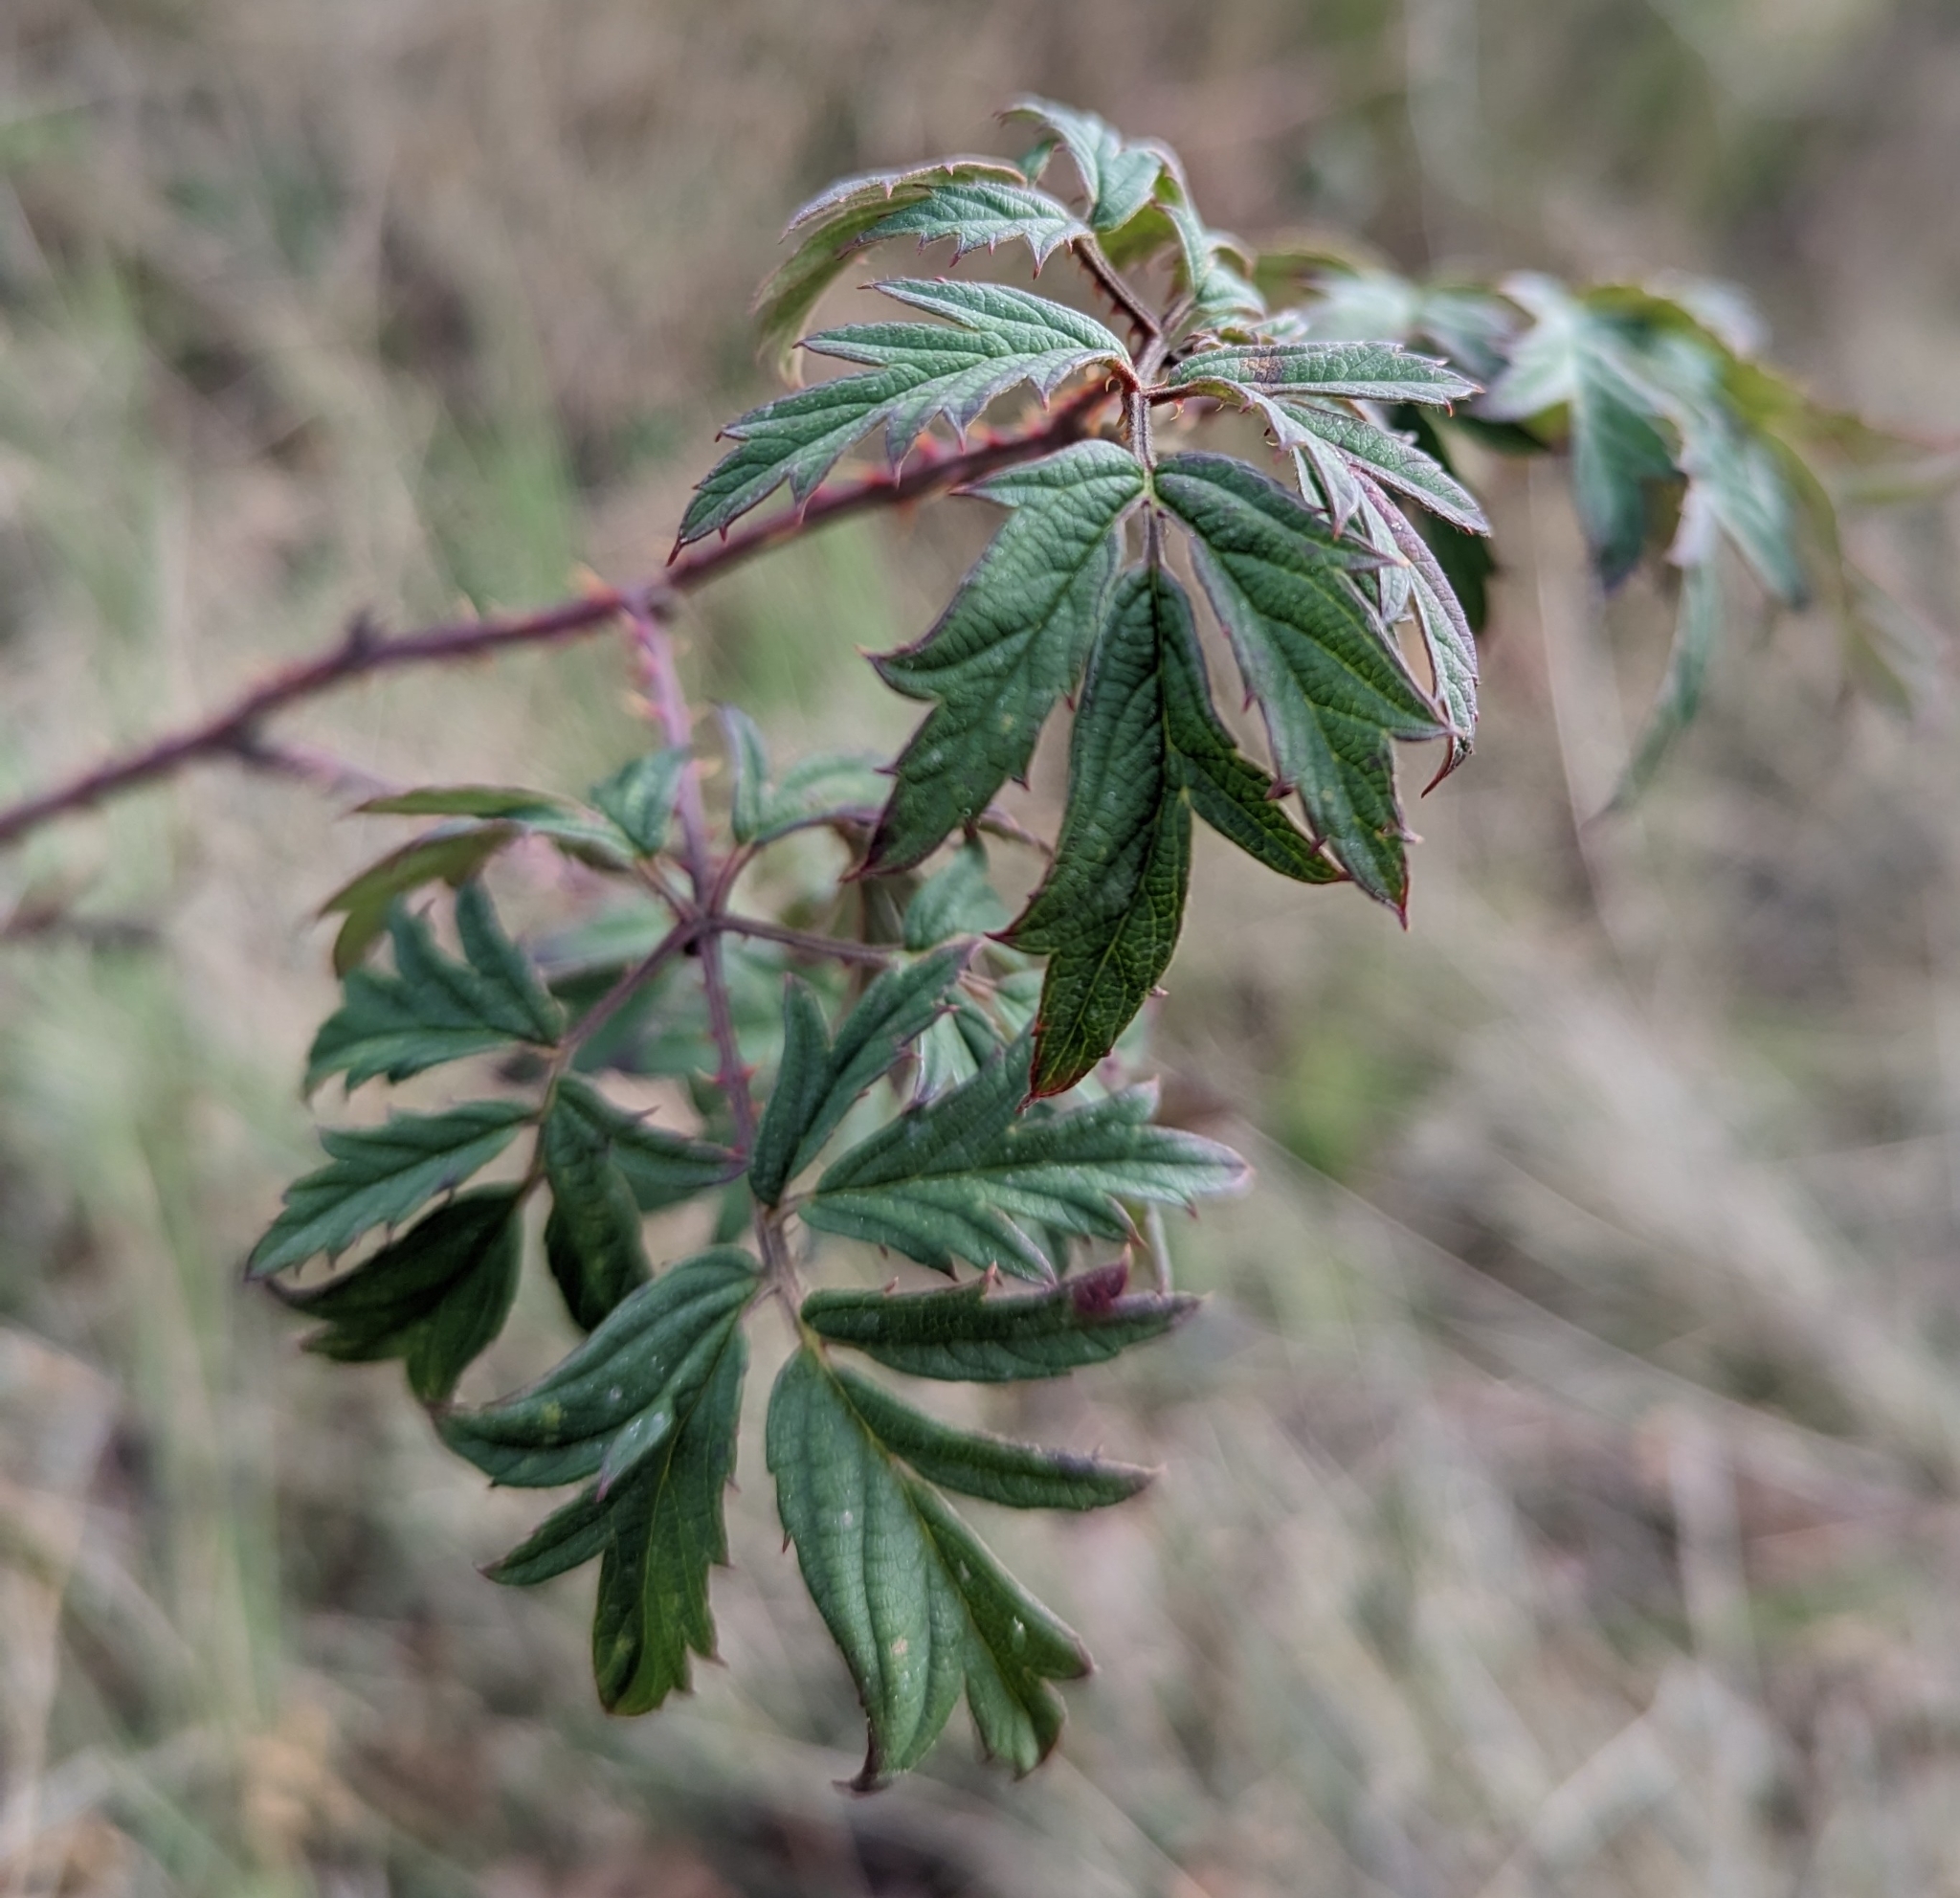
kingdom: Plantae
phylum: Tracheophyta
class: Magnoliopsida
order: Rosales
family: Rosaceae
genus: Rubus
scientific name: Rubus laciniatus
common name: Evergreen blackberry
